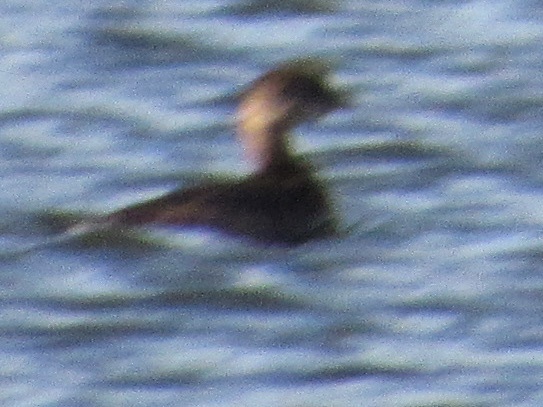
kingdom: Animalia
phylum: Chordata
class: Aves
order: Podicipediformes
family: Podicipedidae
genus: Podilymbus
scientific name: Podilymbus podiceps
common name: Pied-billed grebe
